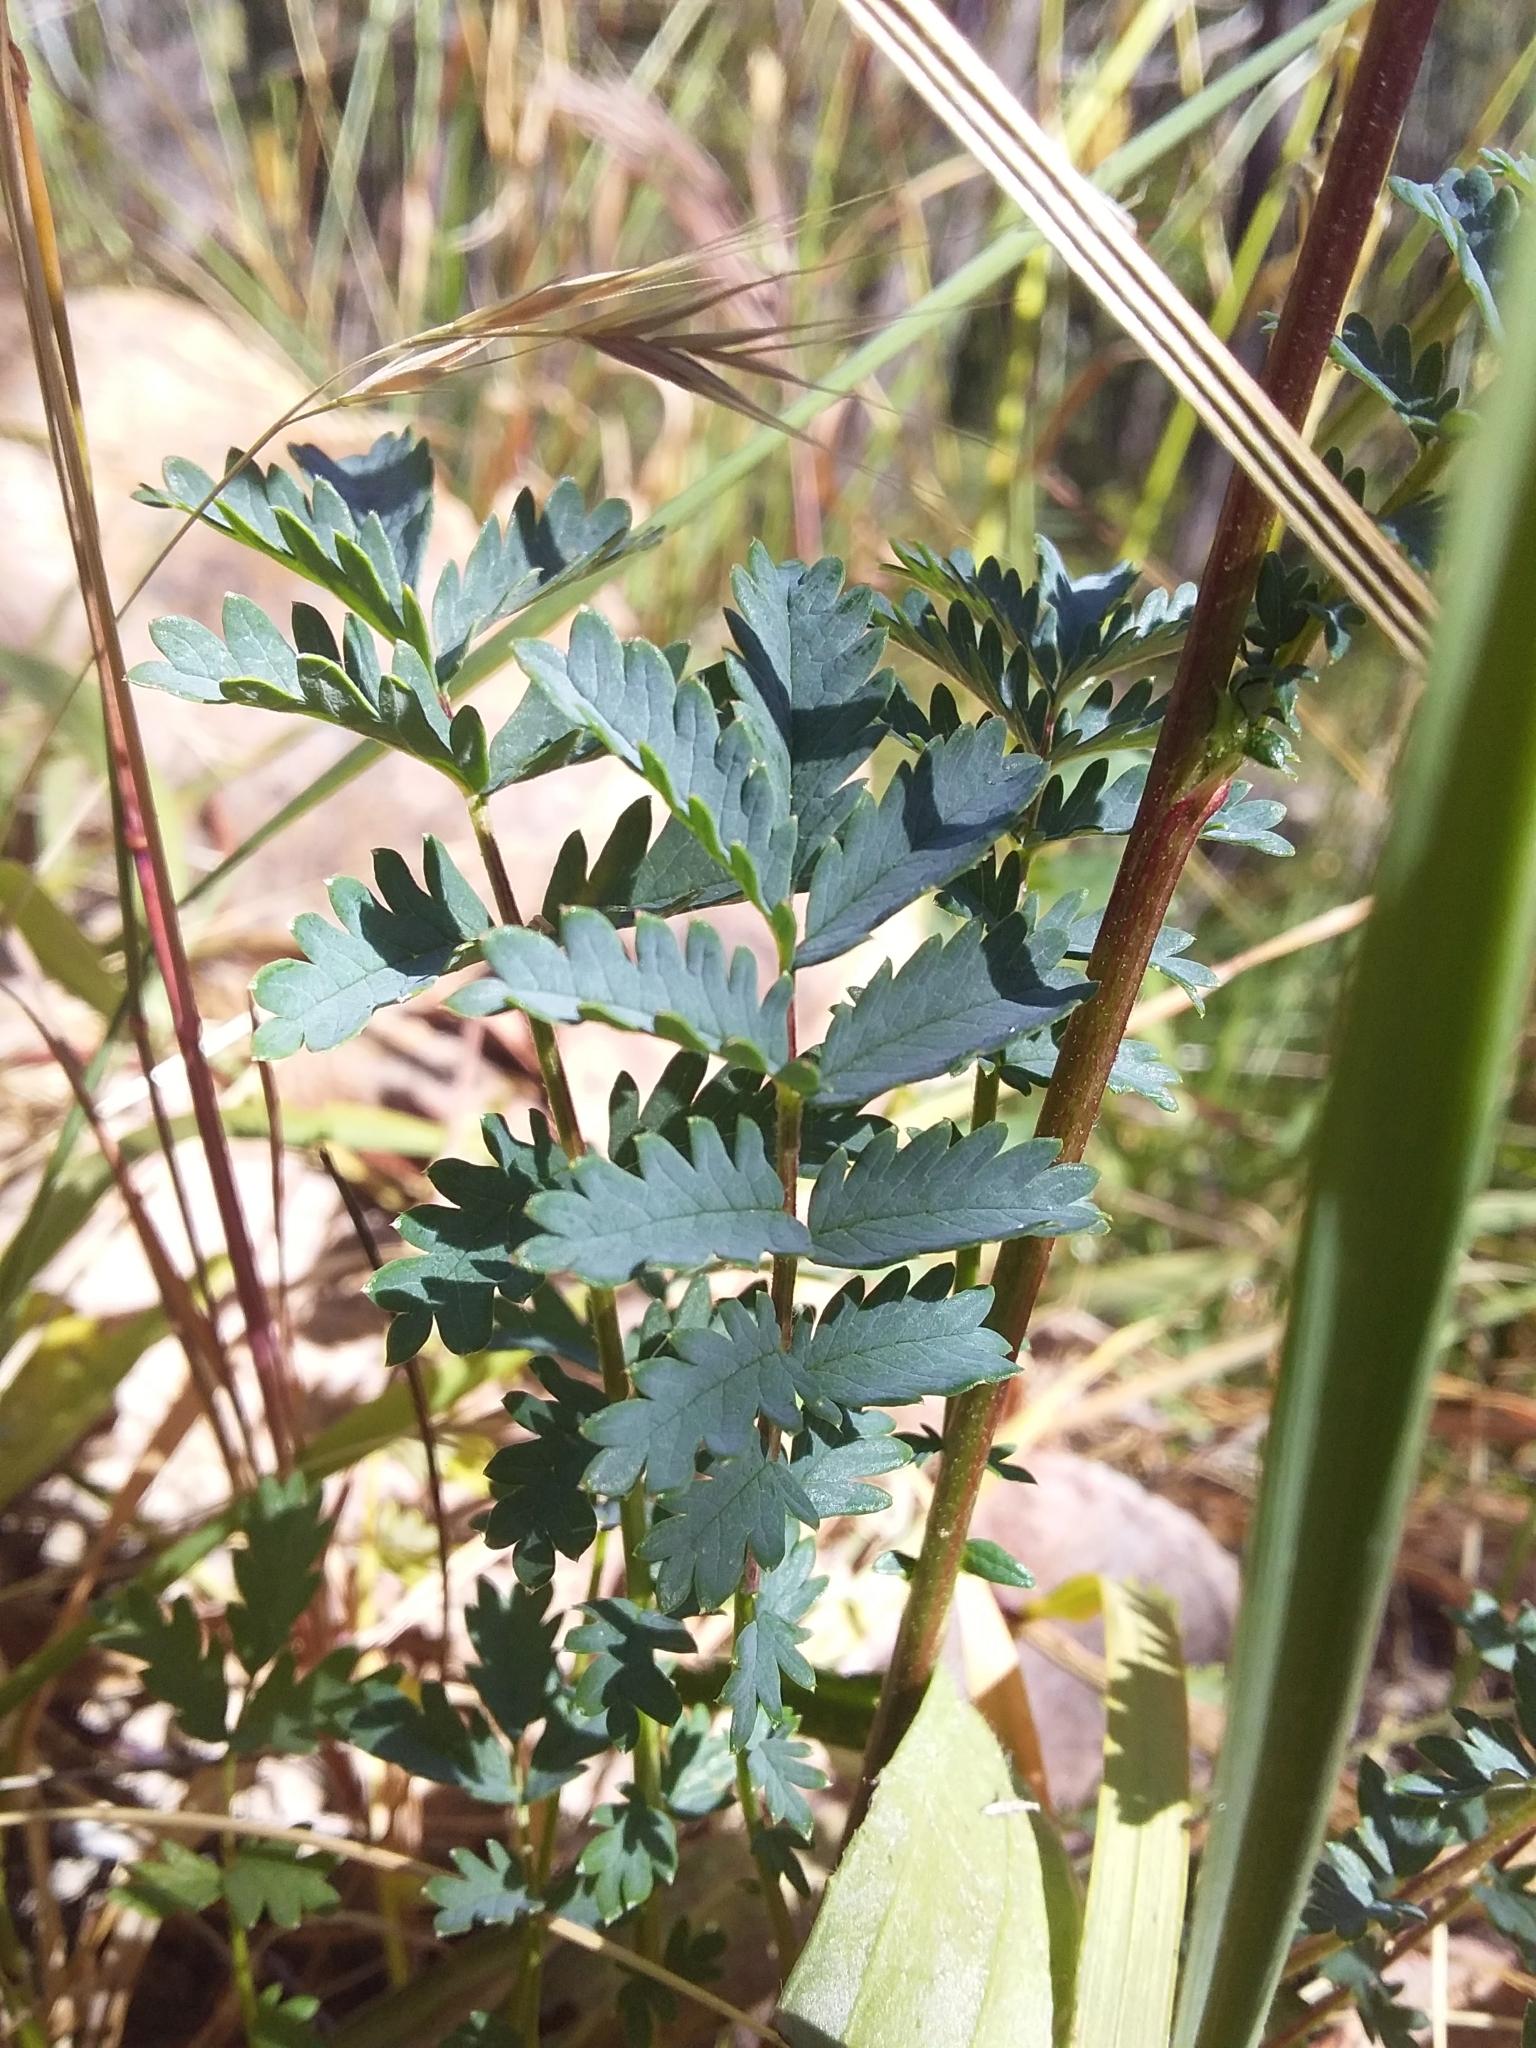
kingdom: Plantae
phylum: Tracheophyta
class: Magnoliopsida
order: Rosales
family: Rosaceae
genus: Acaena
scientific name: Acaena echinata
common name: Sheepbur
